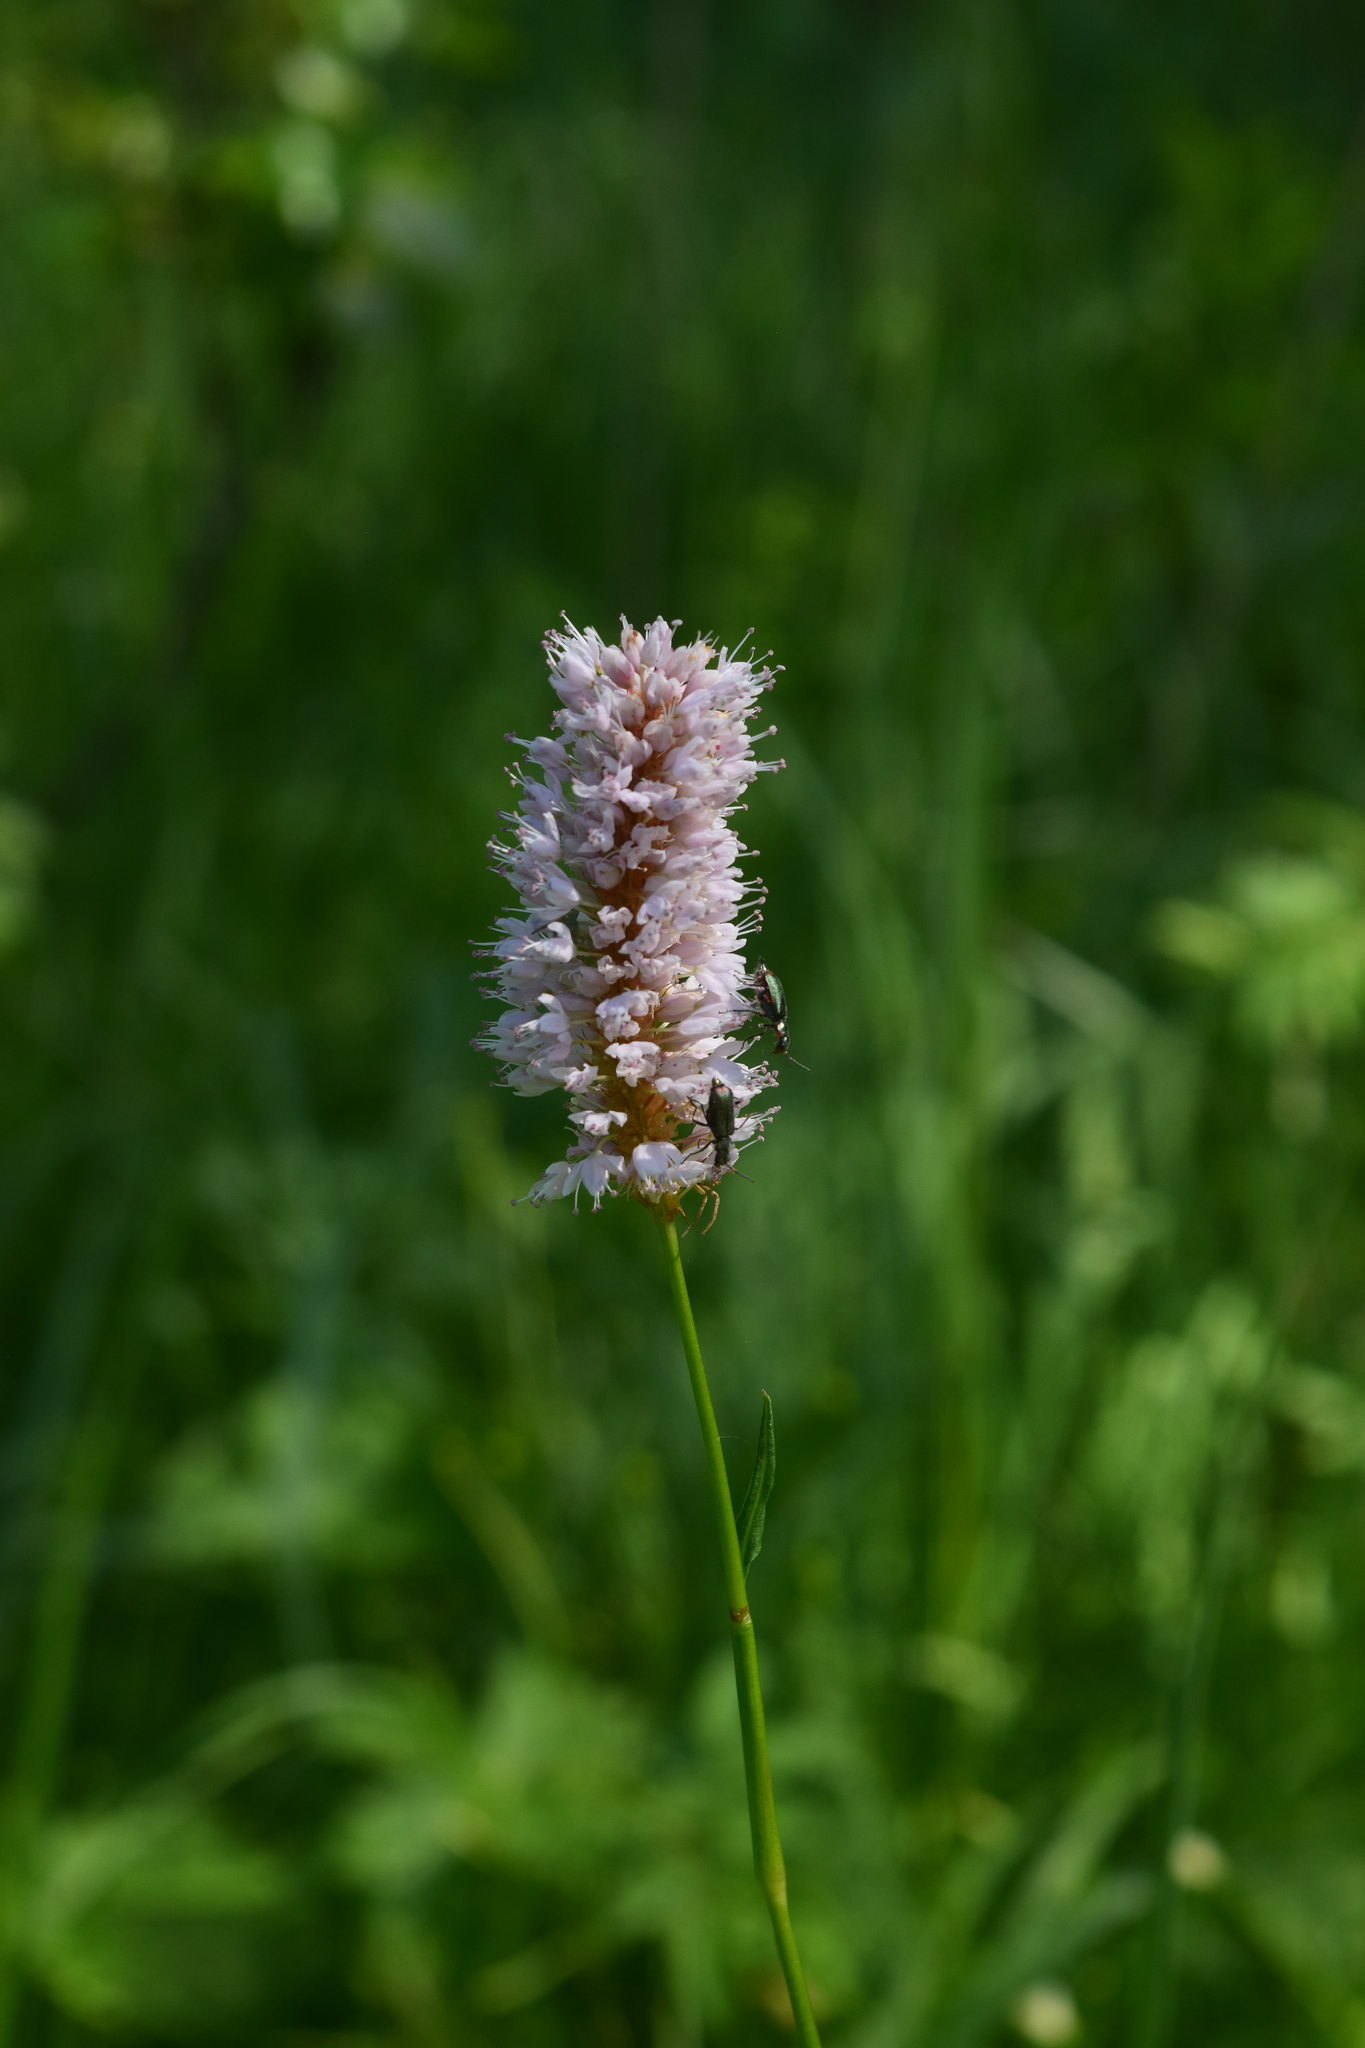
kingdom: Plantae
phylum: Tracheophyta
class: Magnoliopsida
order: Caryophyllales
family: Polygonaceae
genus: Bistorta
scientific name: Bistorta officinalis
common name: Common bistort
